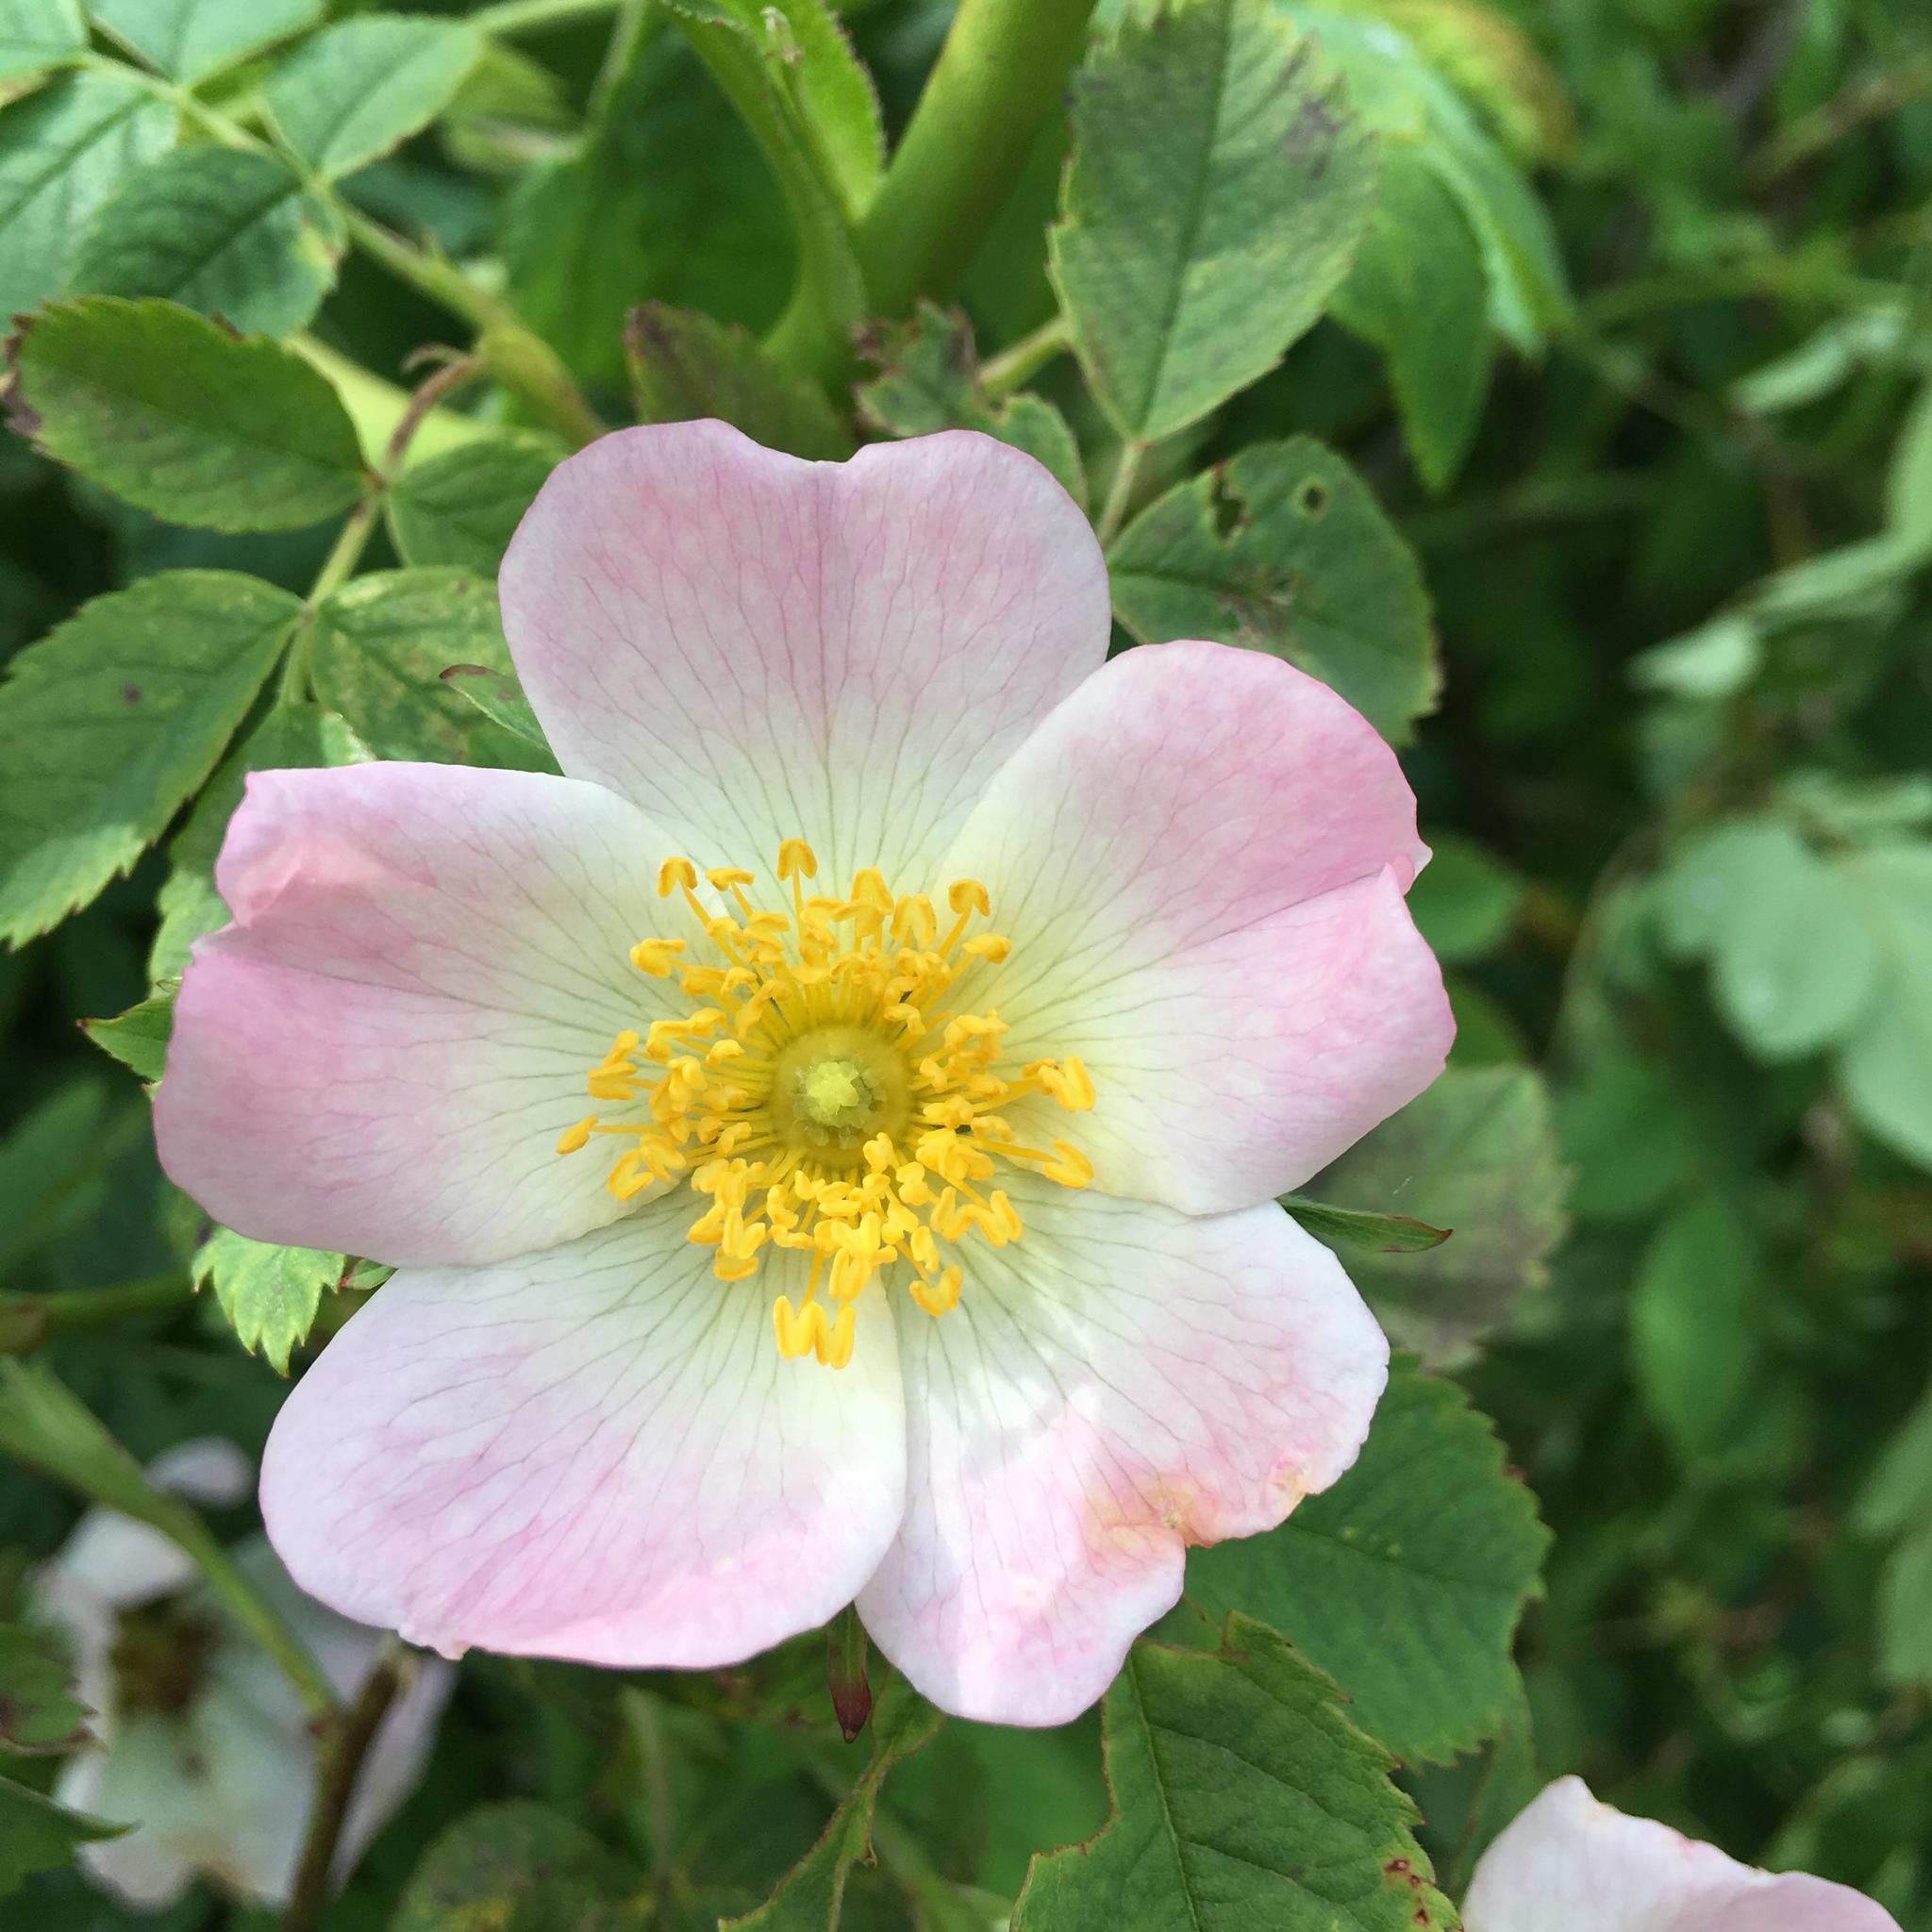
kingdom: Plantae
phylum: Tracheophyta
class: Magnoliopsida
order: Rosales
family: Rosaceae
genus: Rosa
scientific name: Rosa canina
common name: Dog rose
